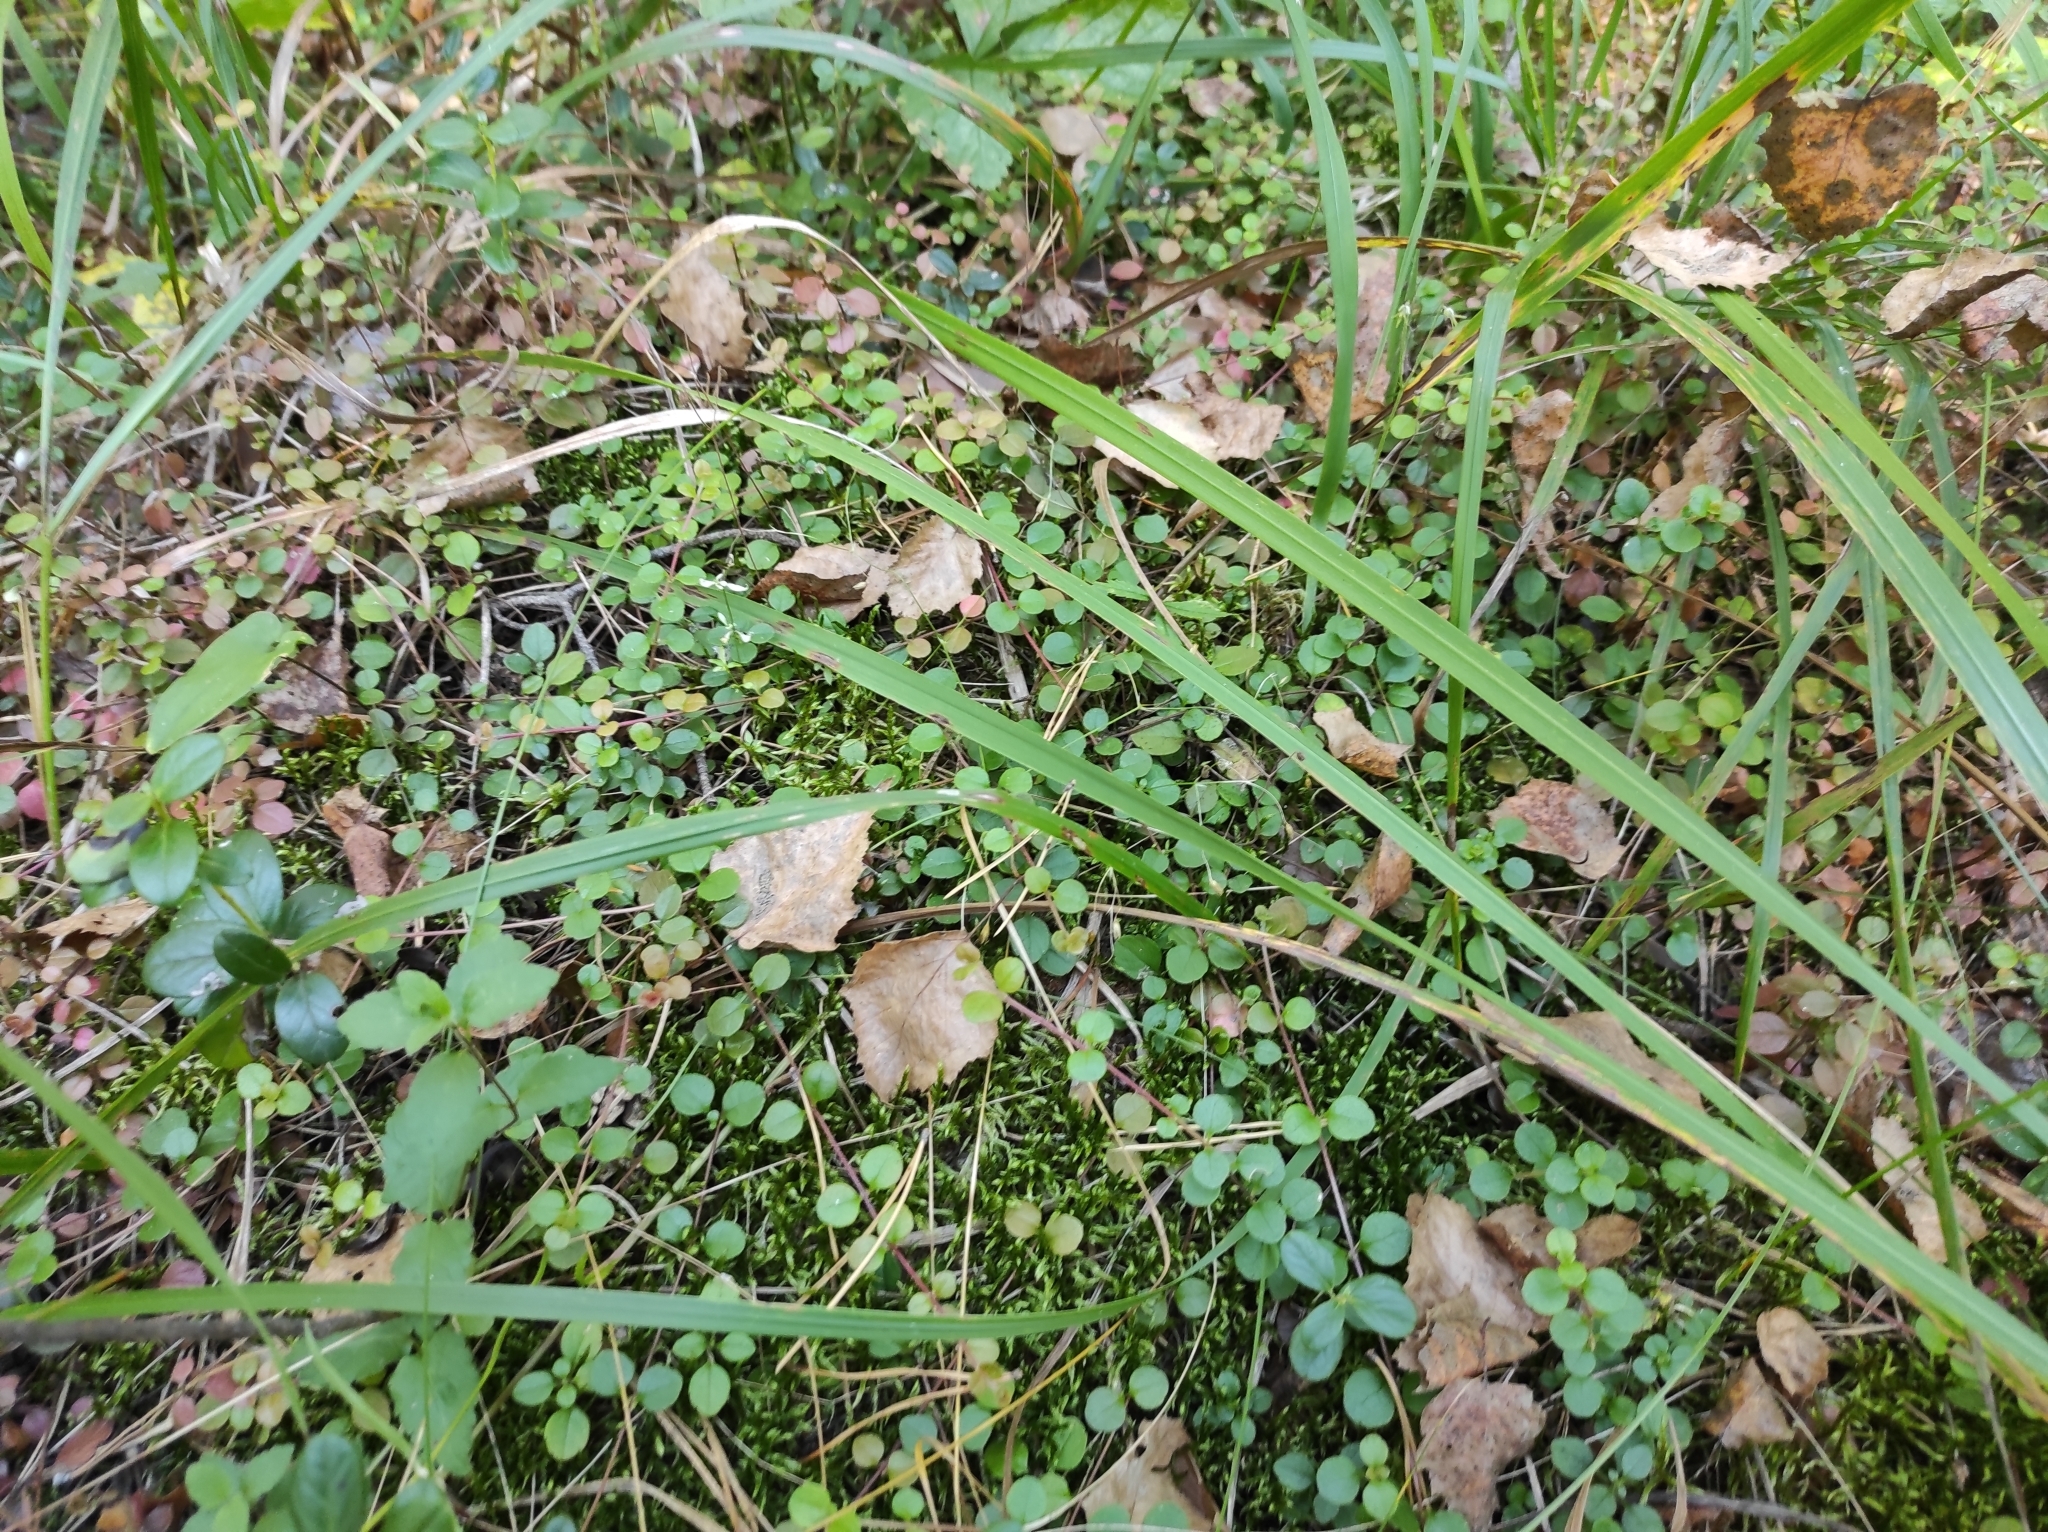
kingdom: Plantae
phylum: Tracheophyta
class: Magnoliopsida
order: Dipsacales
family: Caprifoliaceae
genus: Linnaea
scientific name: Linnaea borealis
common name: Twinflower
